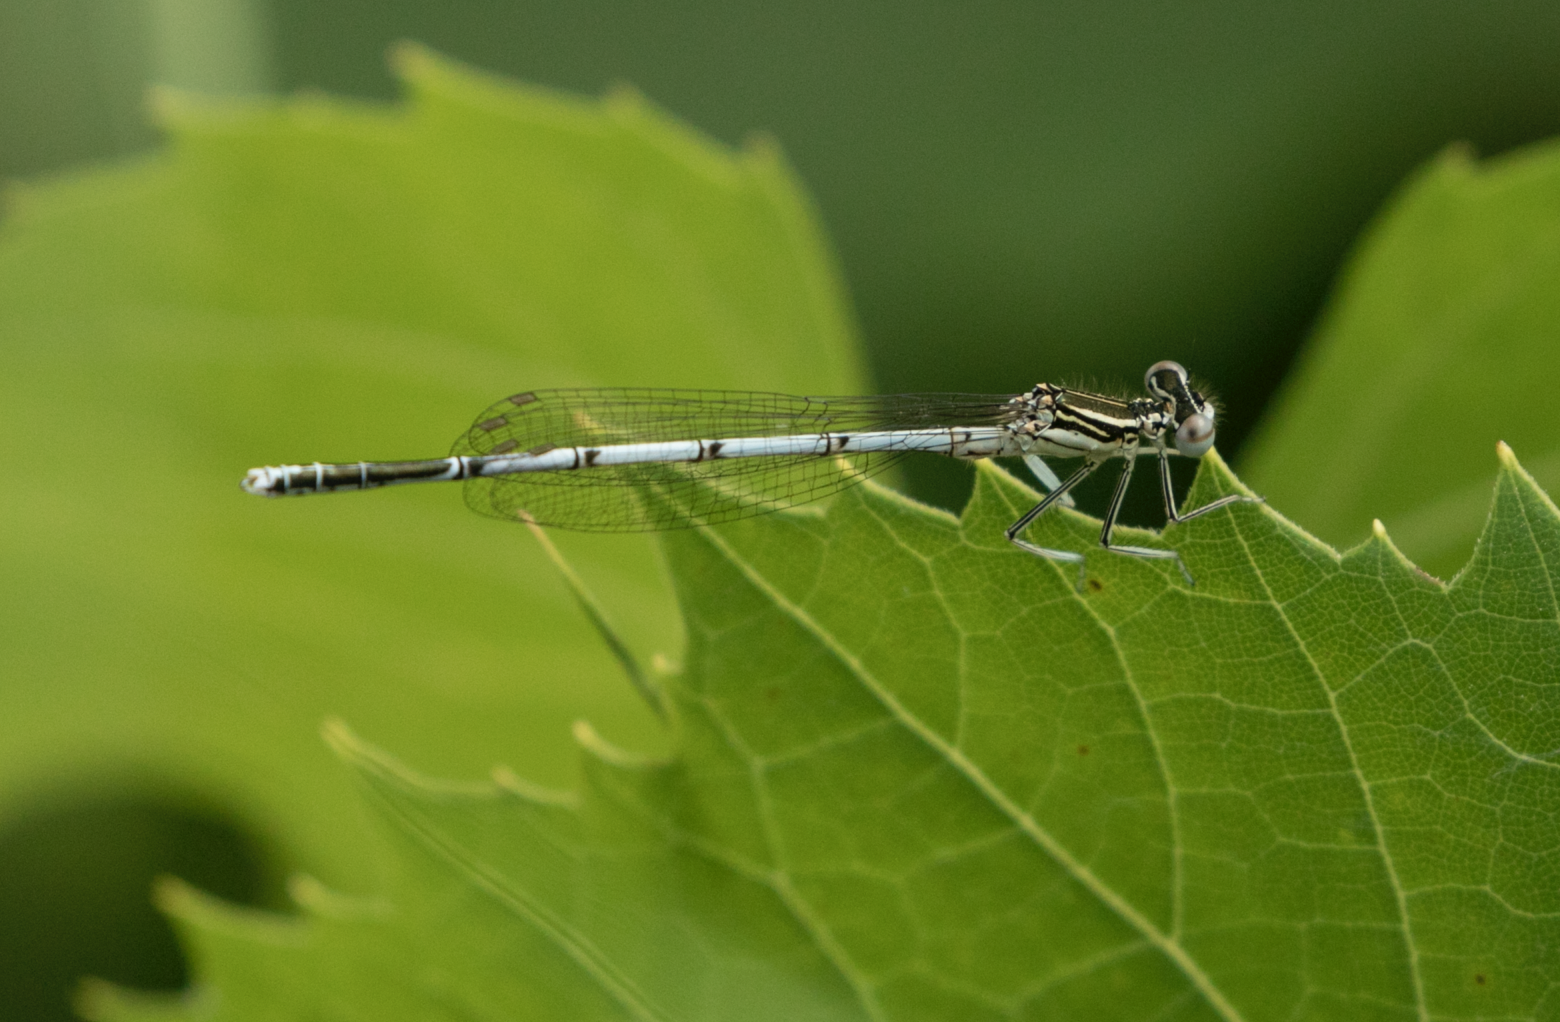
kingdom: Animalia
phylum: Arthropoda
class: Insecta
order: Odonata
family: Platycnemididae
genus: Platycnemis
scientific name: Platycnemis pennipes
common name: White-legged damselfly
